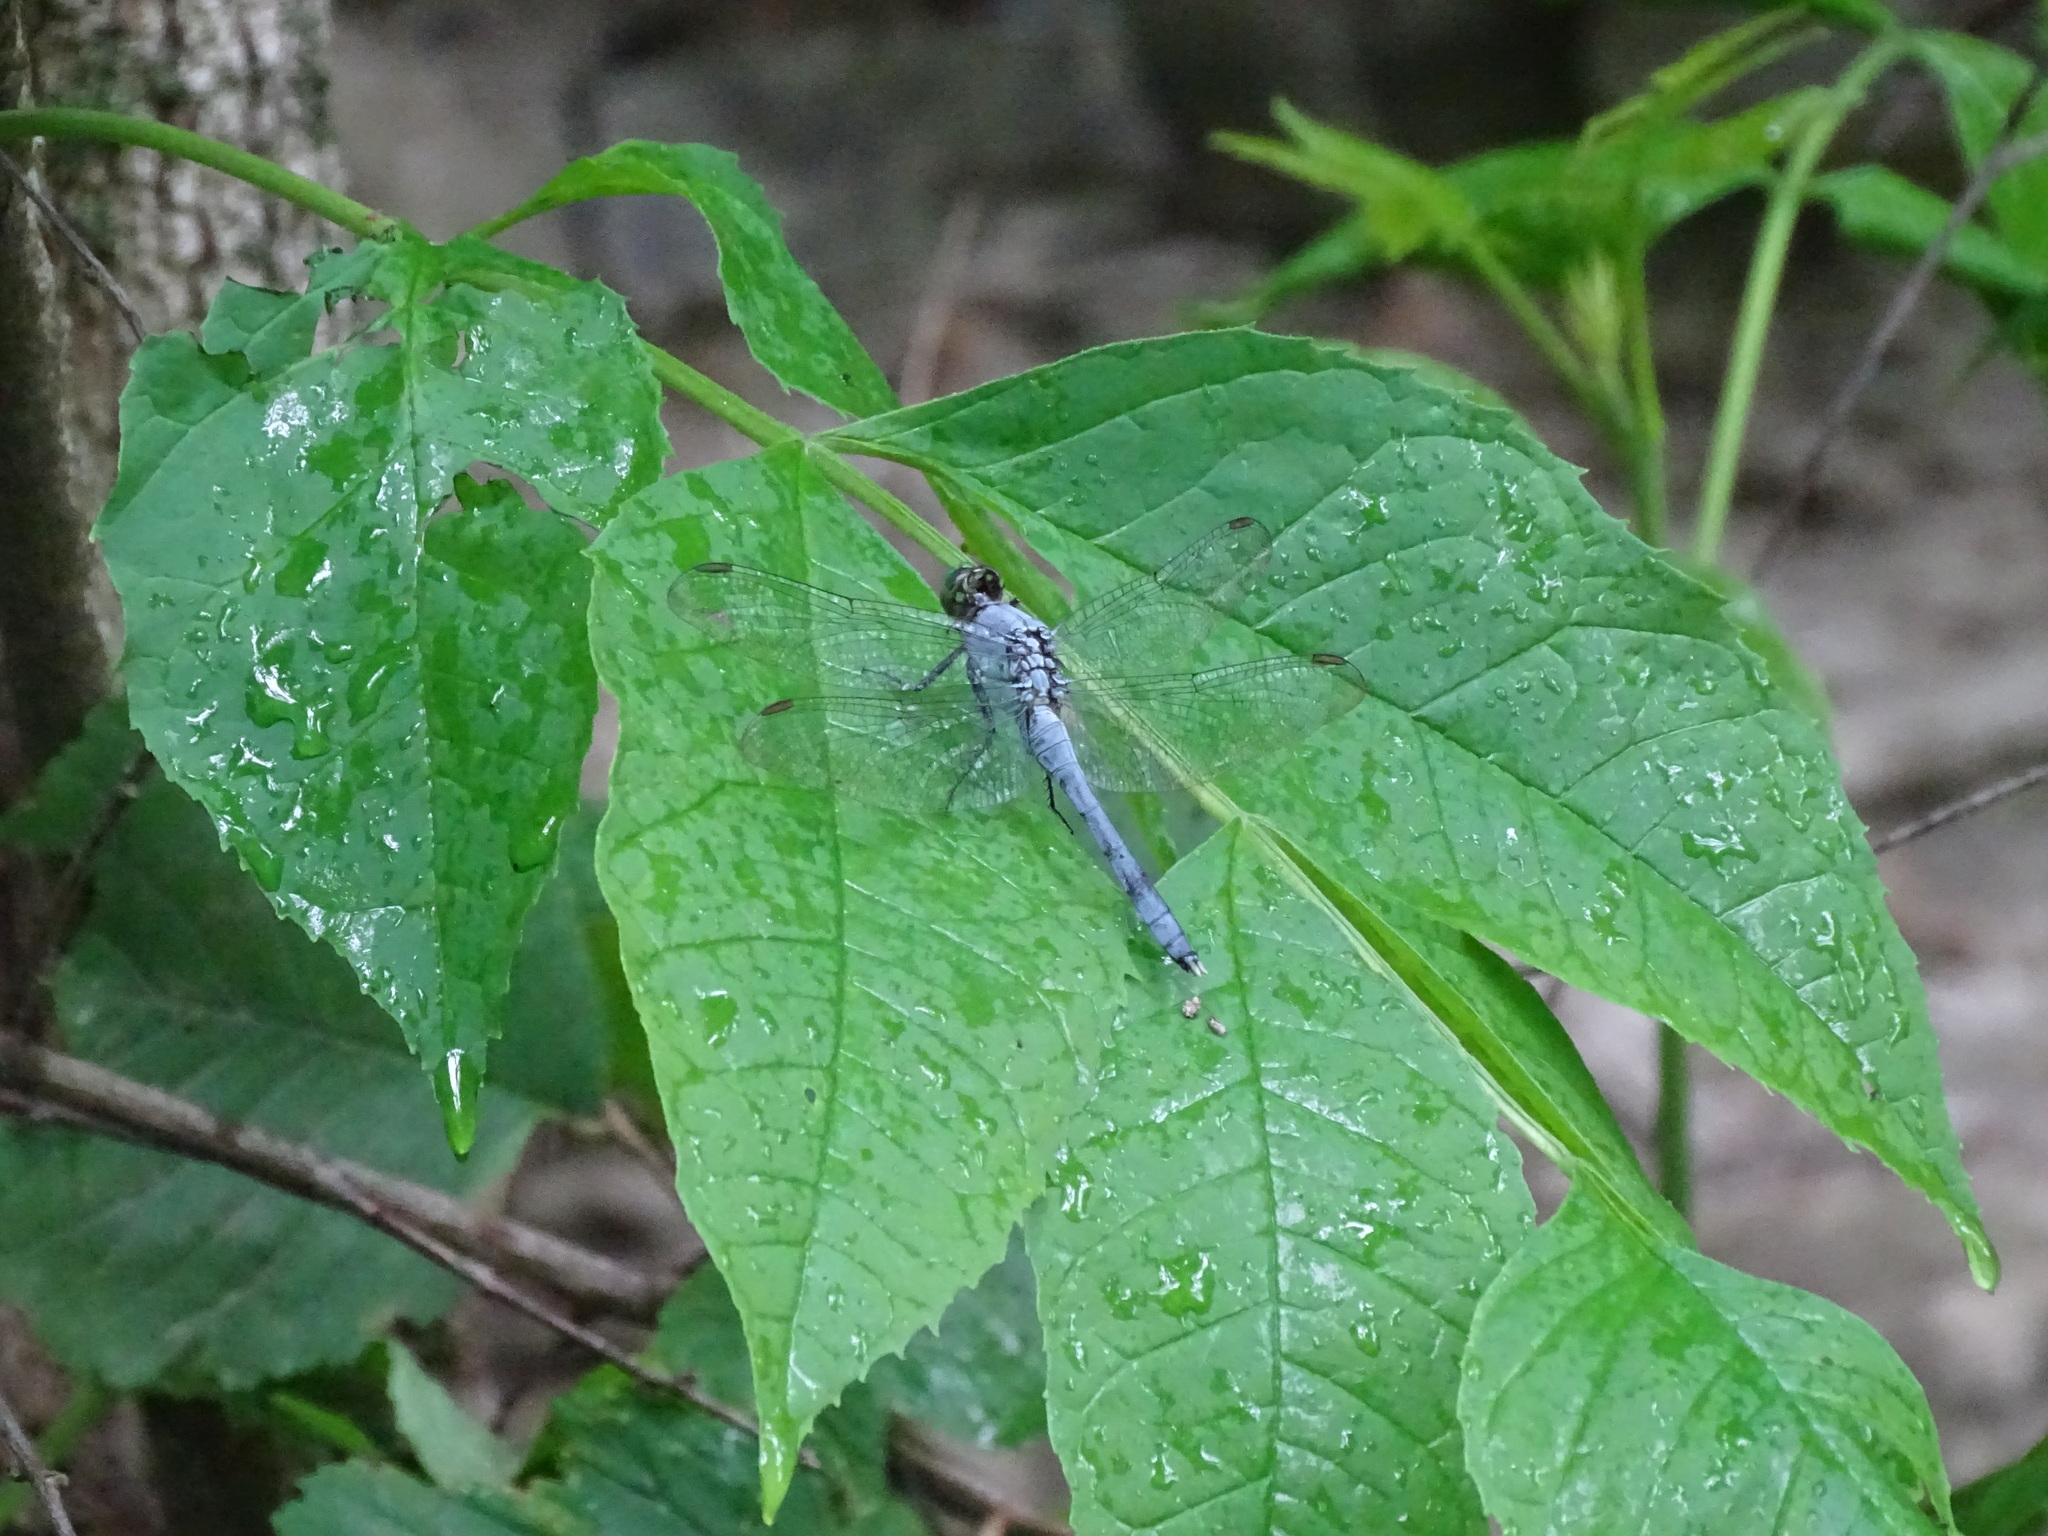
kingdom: Animalia
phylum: Arthropoda
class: Insecta
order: Odonata
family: Libellulidae
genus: Erythemis
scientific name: Erythemis simplicicollis
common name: Eastern pondhawk
